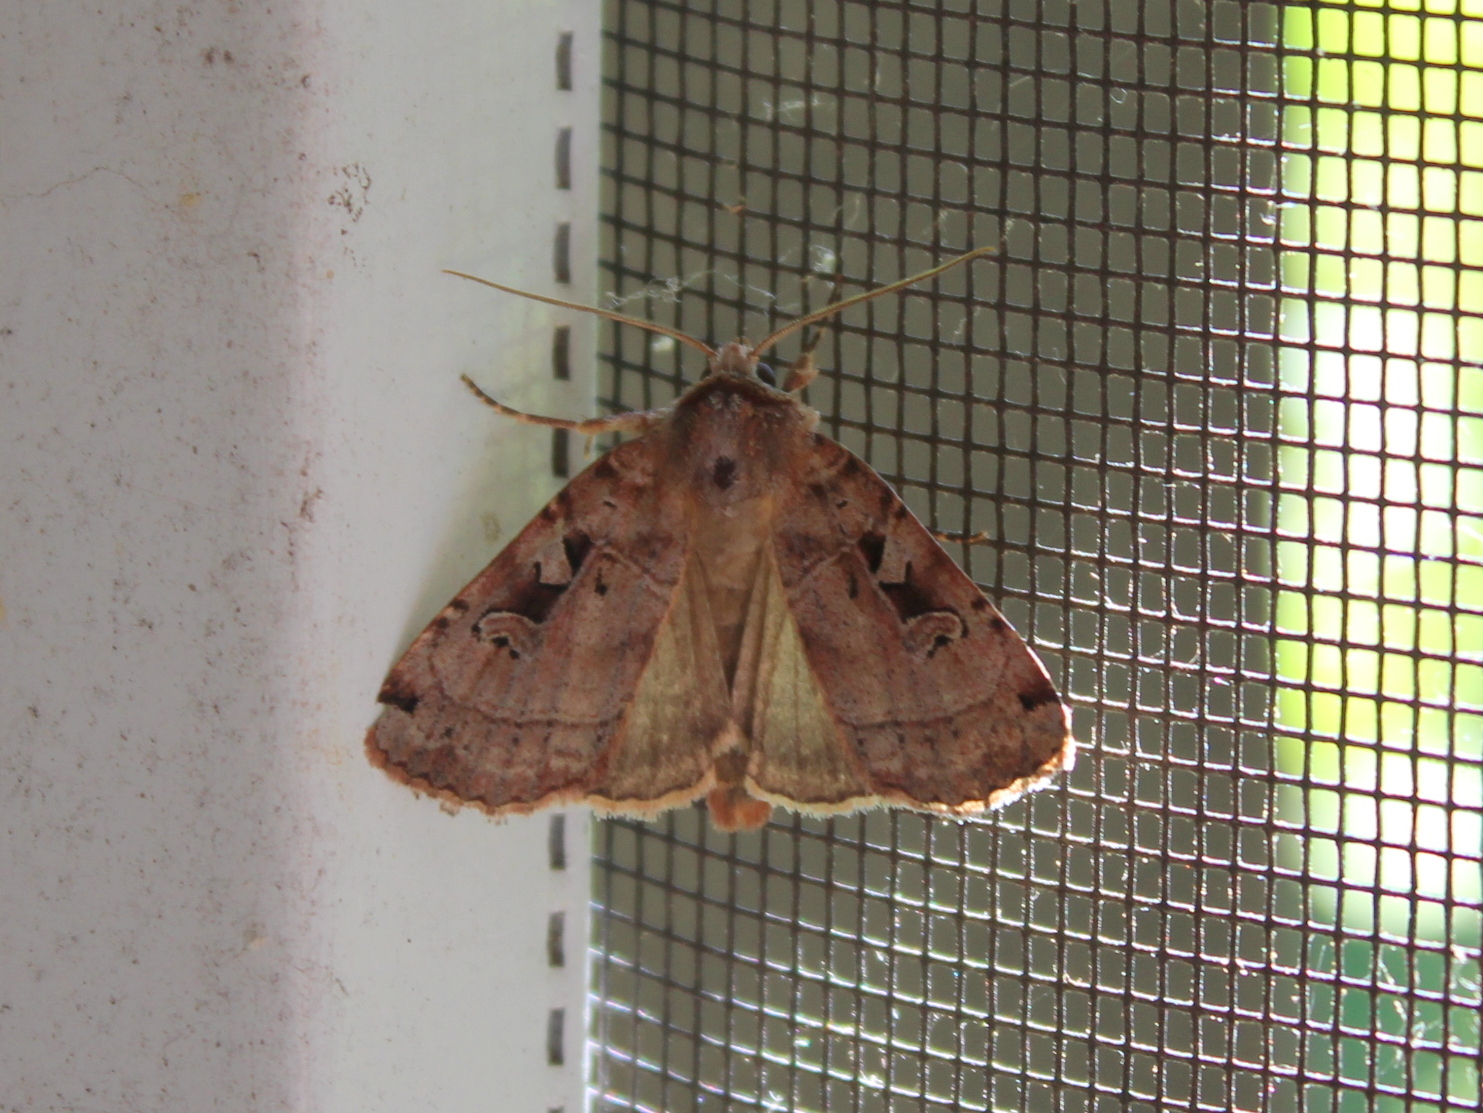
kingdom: Animalia
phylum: Arthropoda
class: Insecta
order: Lepidoptera
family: Noctuidae
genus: Xestia
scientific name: Xestia normaniana
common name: Norman's dart moth
